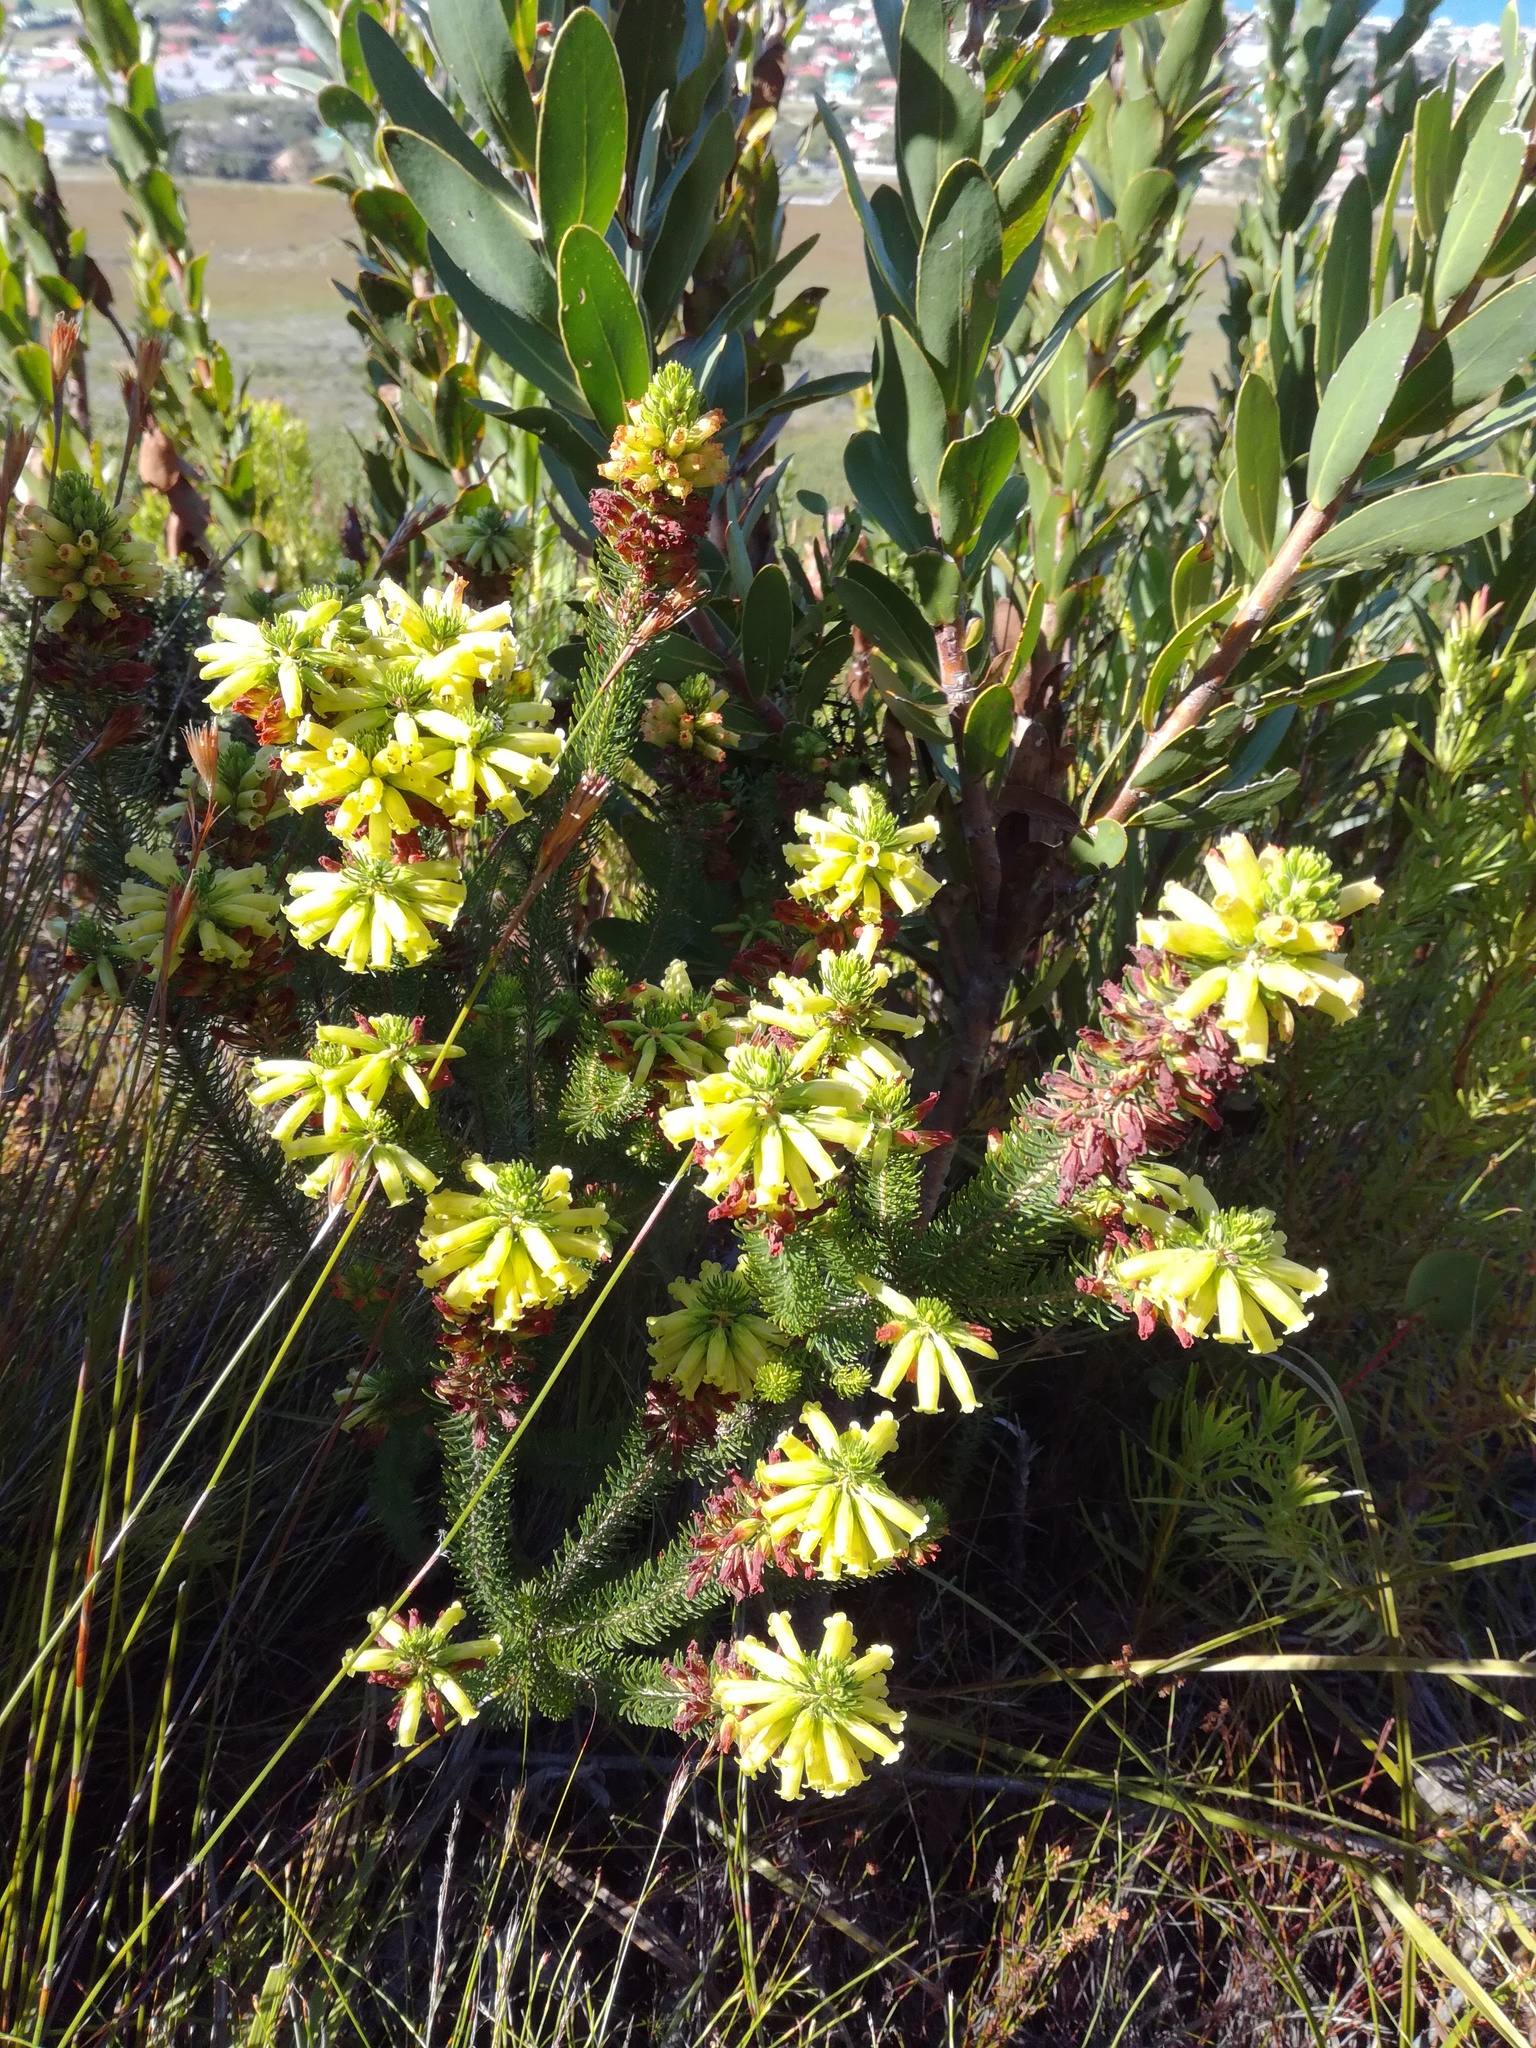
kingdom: Plantae
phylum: Tracheophyta
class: Magnoliopsida
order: Ericales
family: Ericaceae
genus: Erica
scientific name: Erica viscaria
